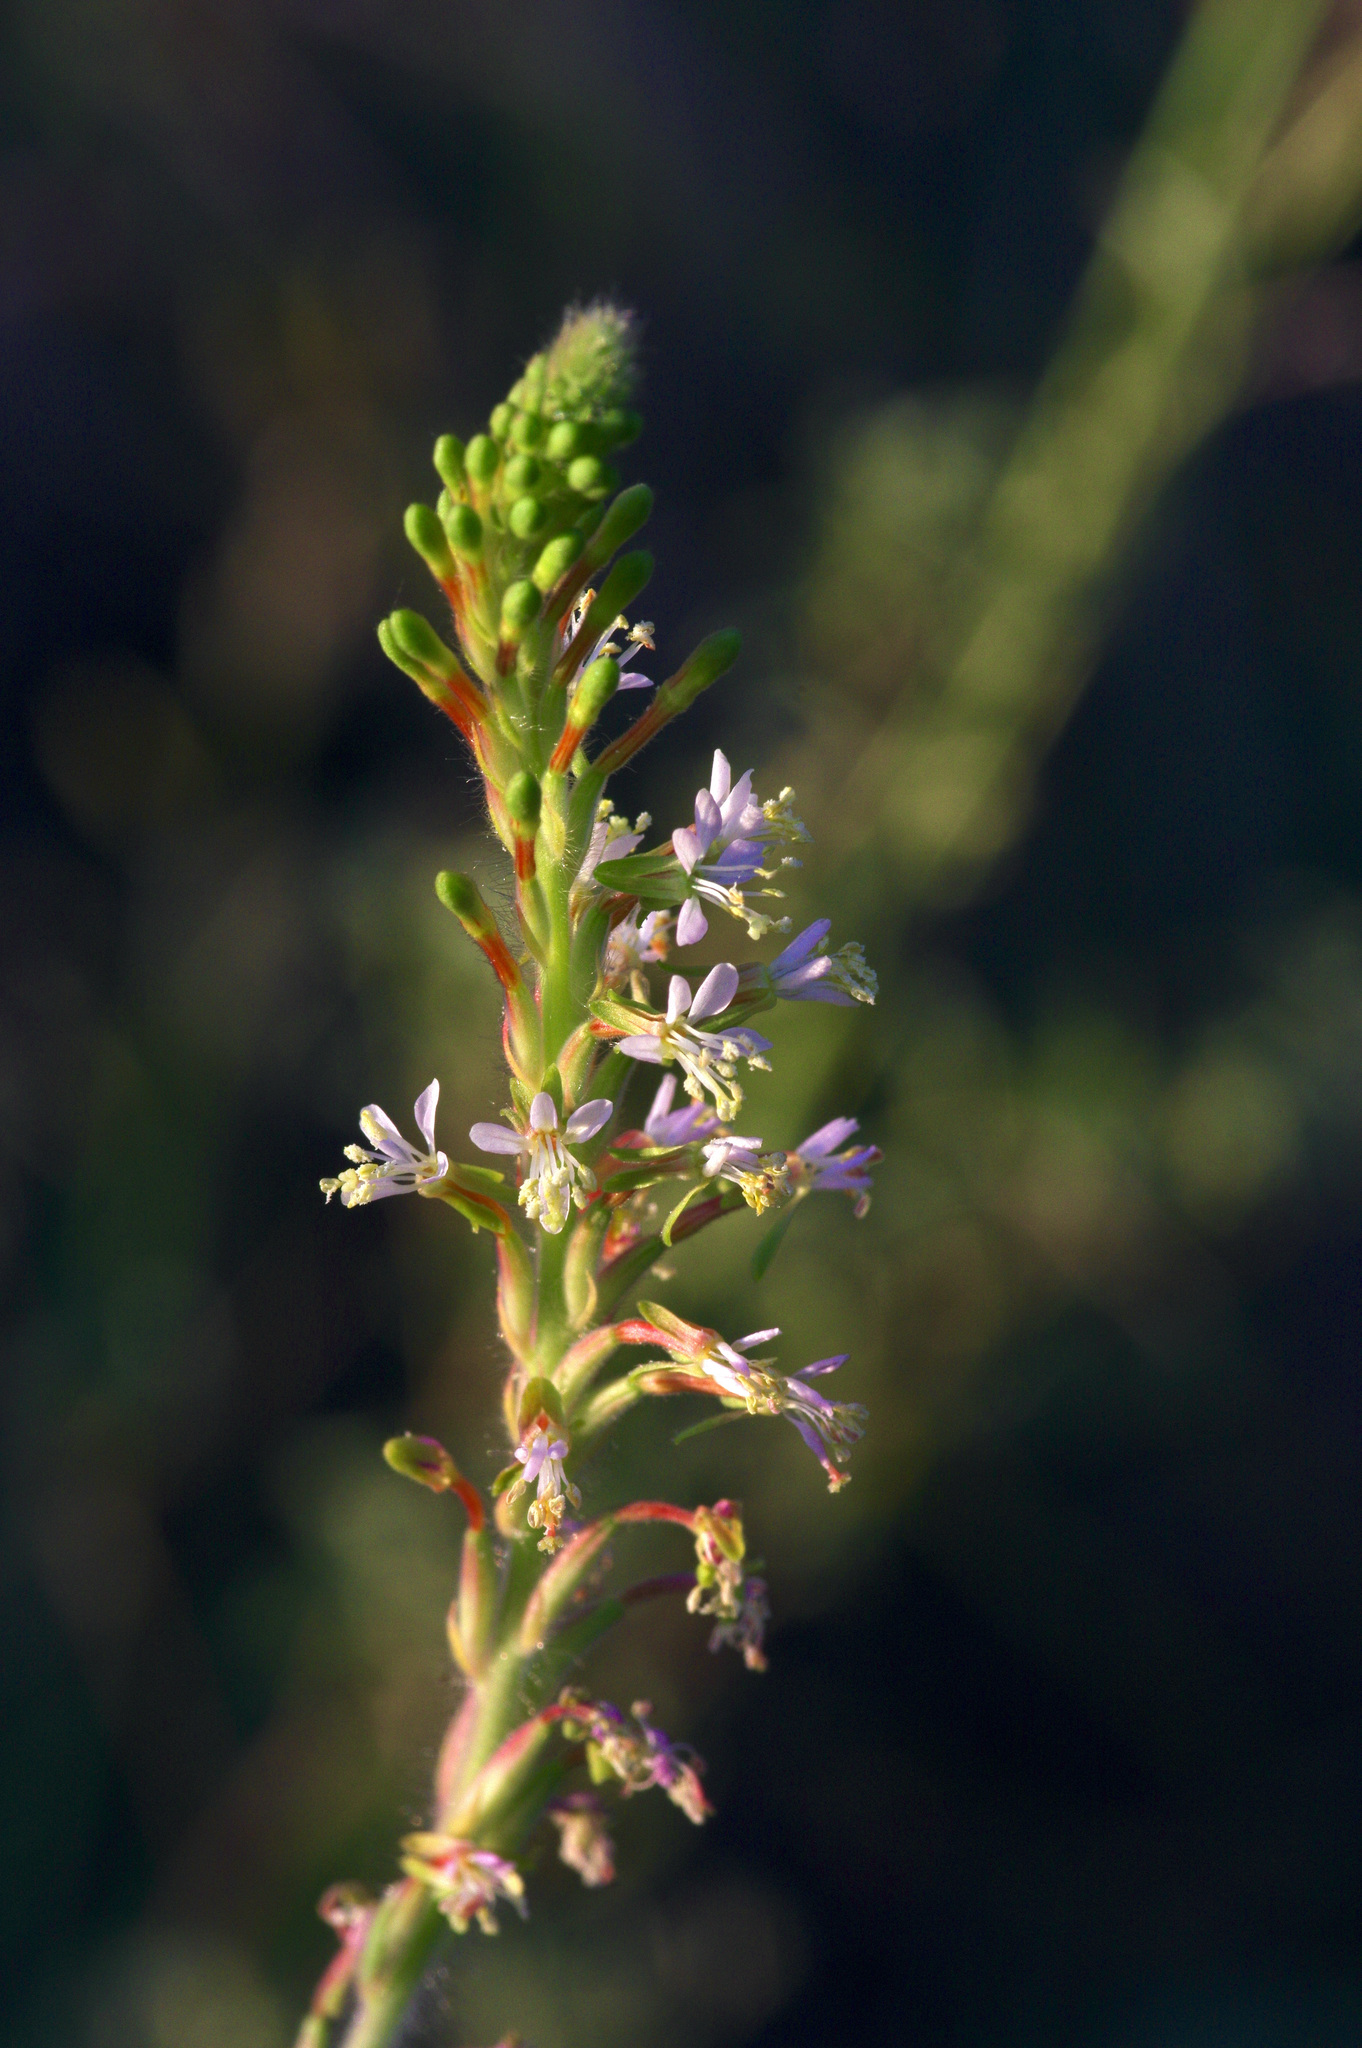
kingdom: Plantae
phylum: Tracheophyta
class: Magnoliopsida
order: Myrtales
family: Onagraceae
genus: Oenothera
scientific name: Oenothera curtiflora
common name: Velvetweed
